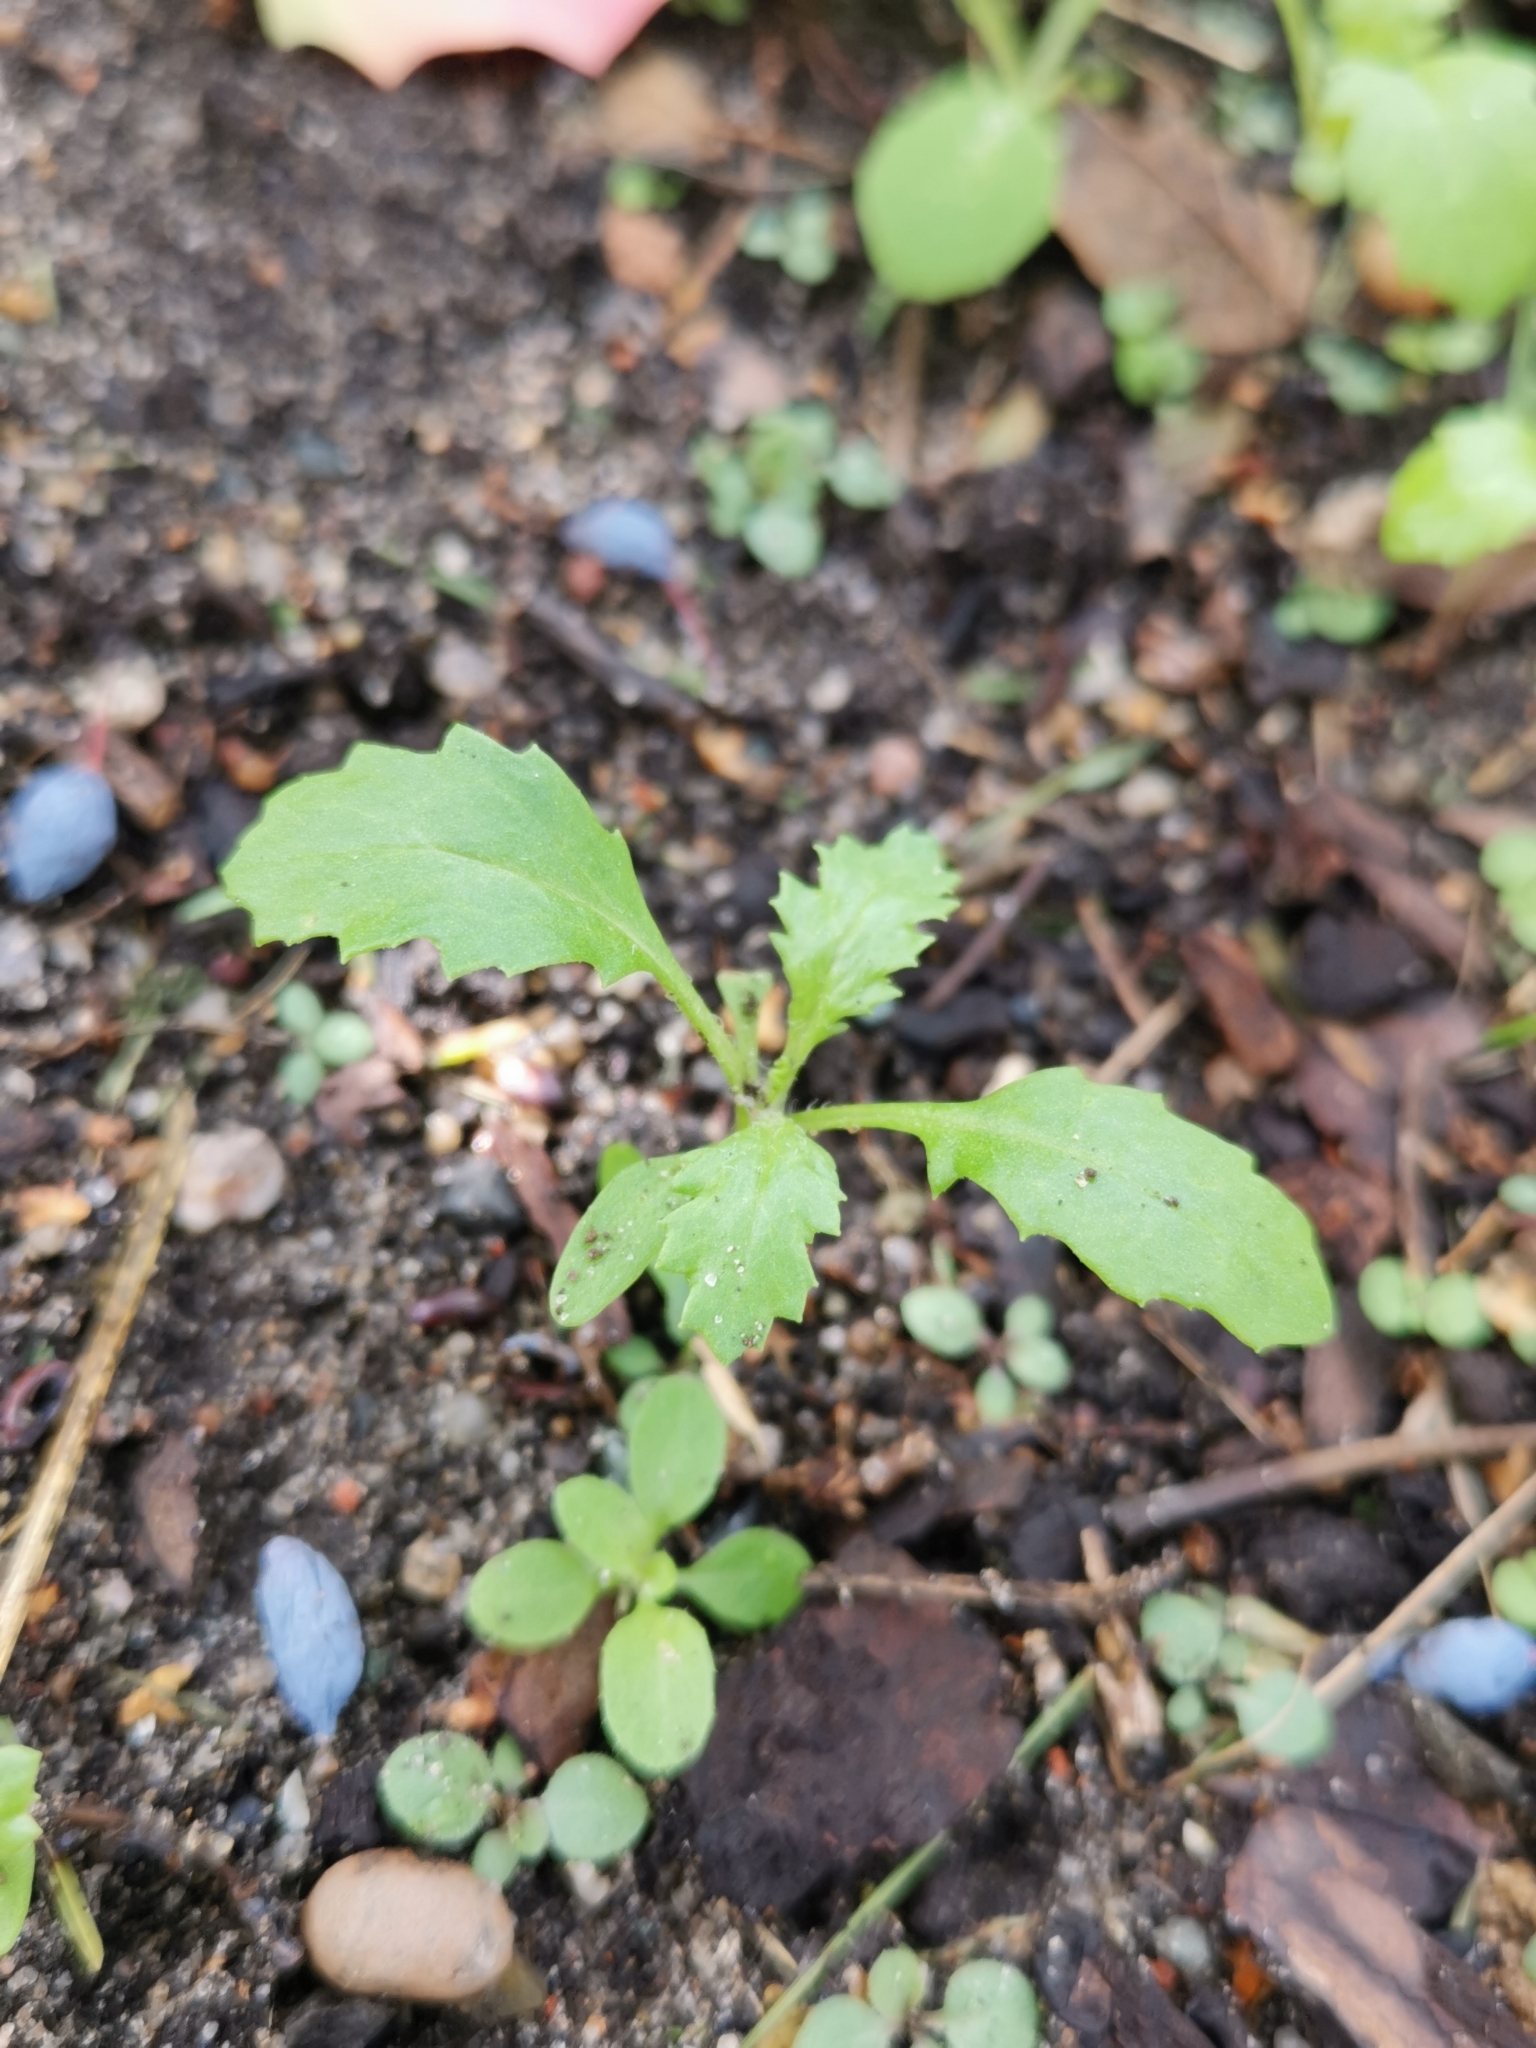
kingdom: Plantae
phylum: Tracheophyta
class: Magnoliopsida
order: Asterales
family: Asteraceae
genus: Senecio
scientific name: Senecio vulgaris
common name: Old-man-in-the-spring
